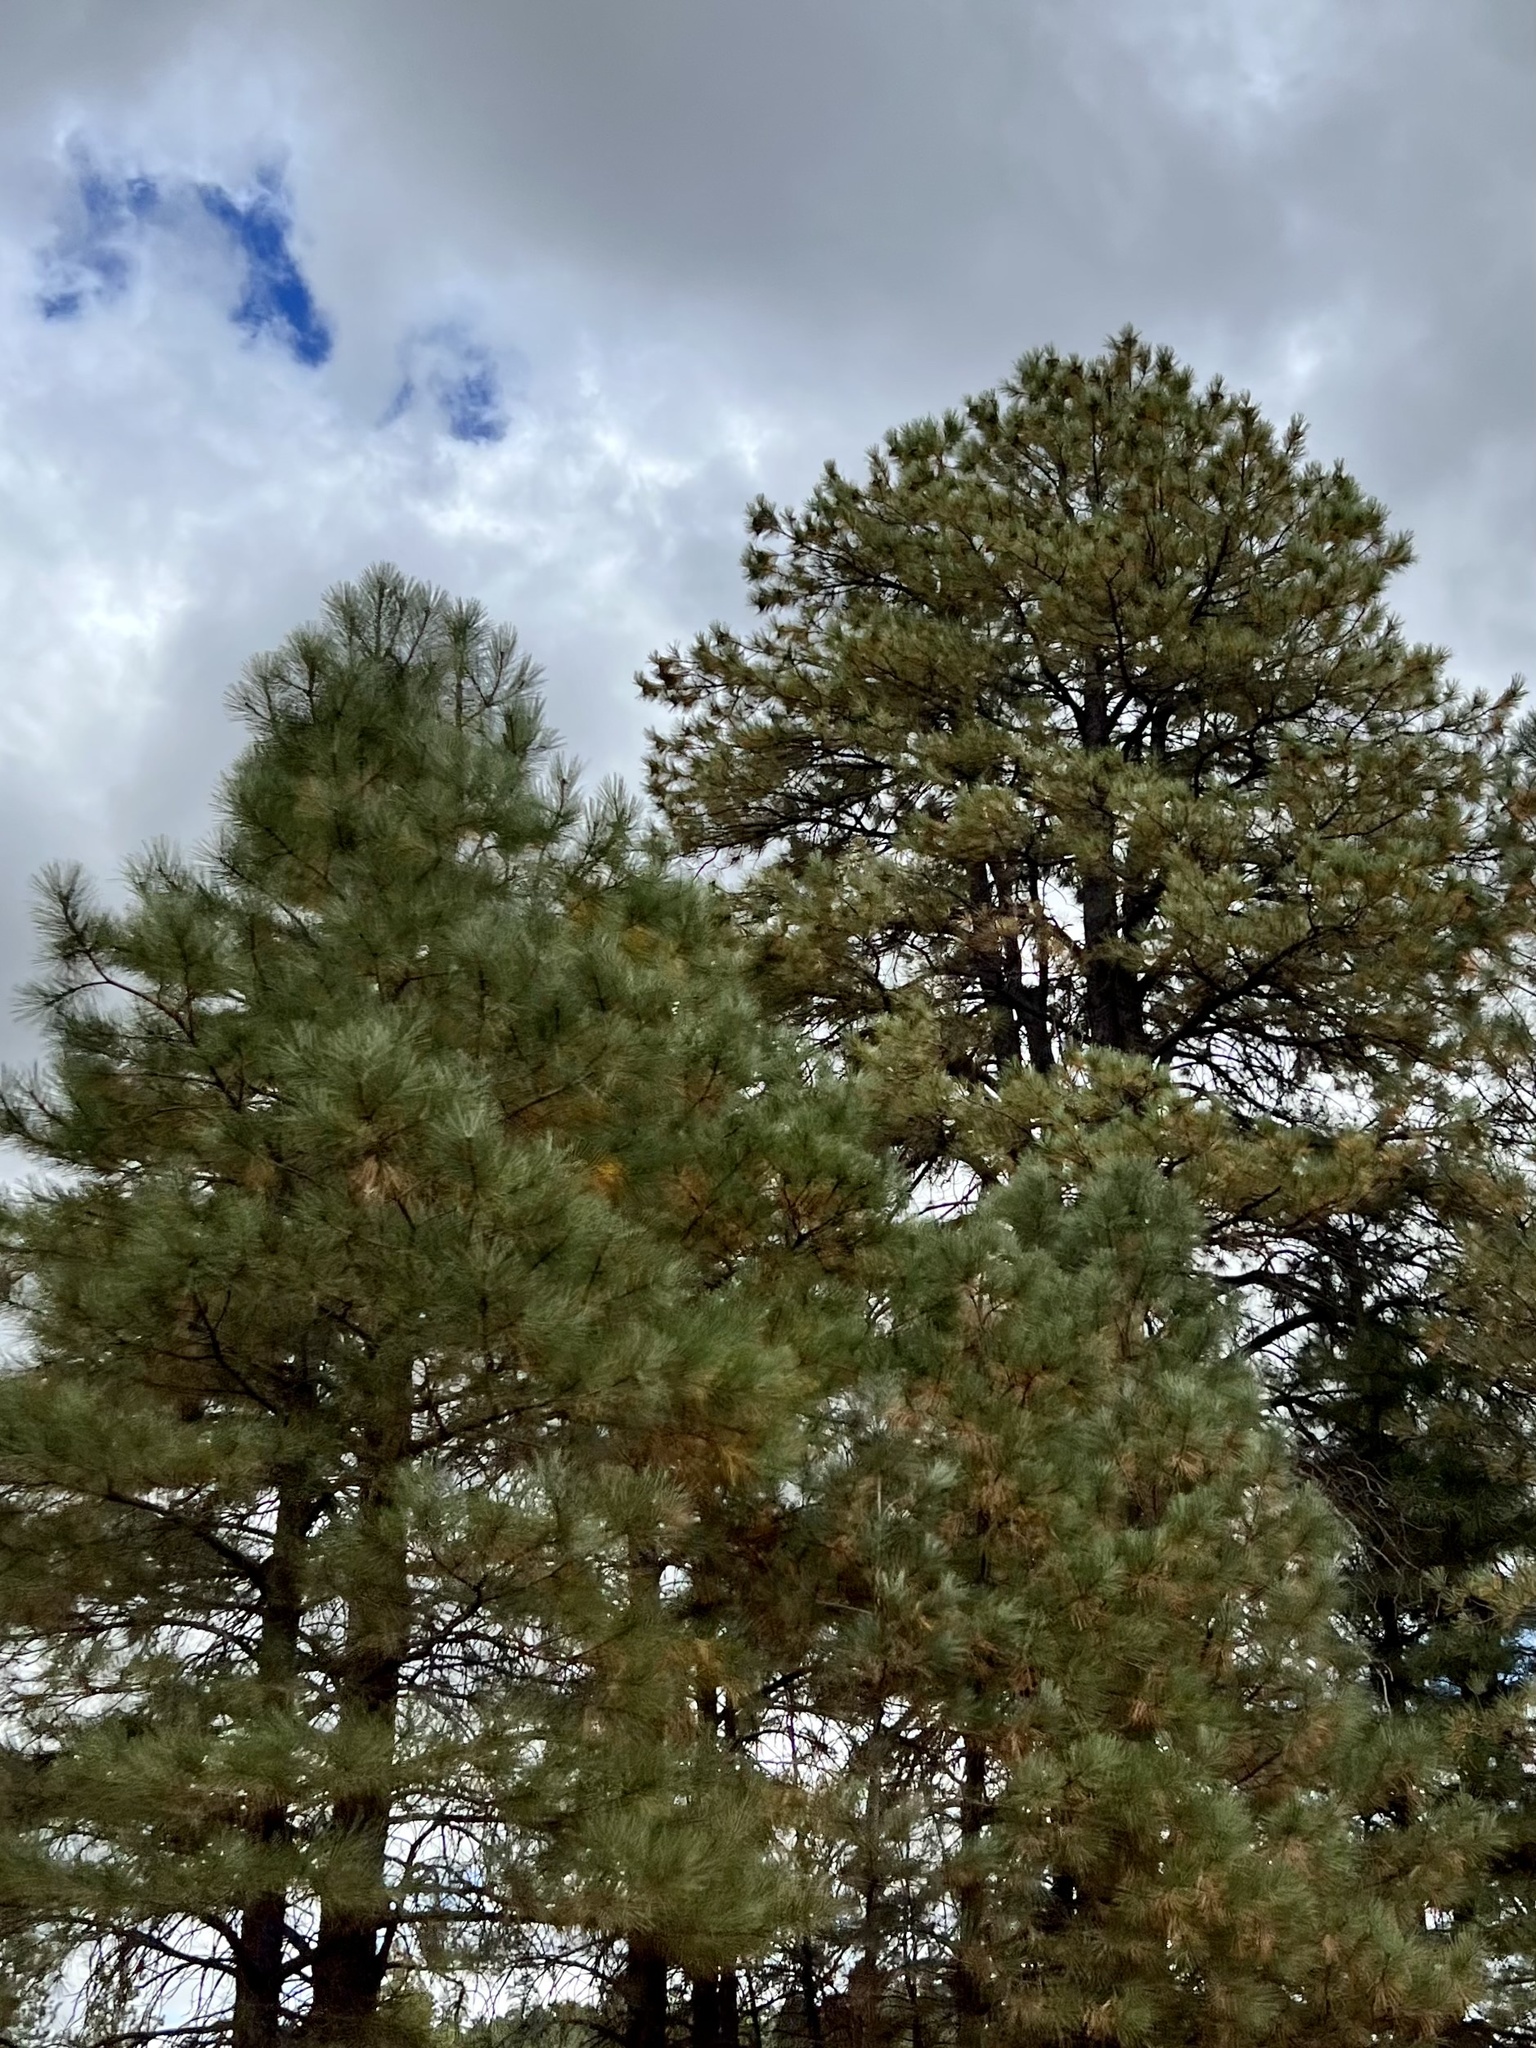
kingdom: Plantae
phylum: Tracheophyta
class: Pinopsida
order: Pinales
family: Pinaceae
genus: Pinus
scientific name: Pinus ponderosa
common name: Western yellow-pine
